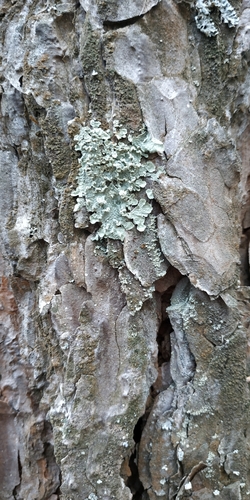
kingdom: Fungi
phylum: Ascomycota
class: Lecanoromycetes
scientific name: Lecanoromycetes
